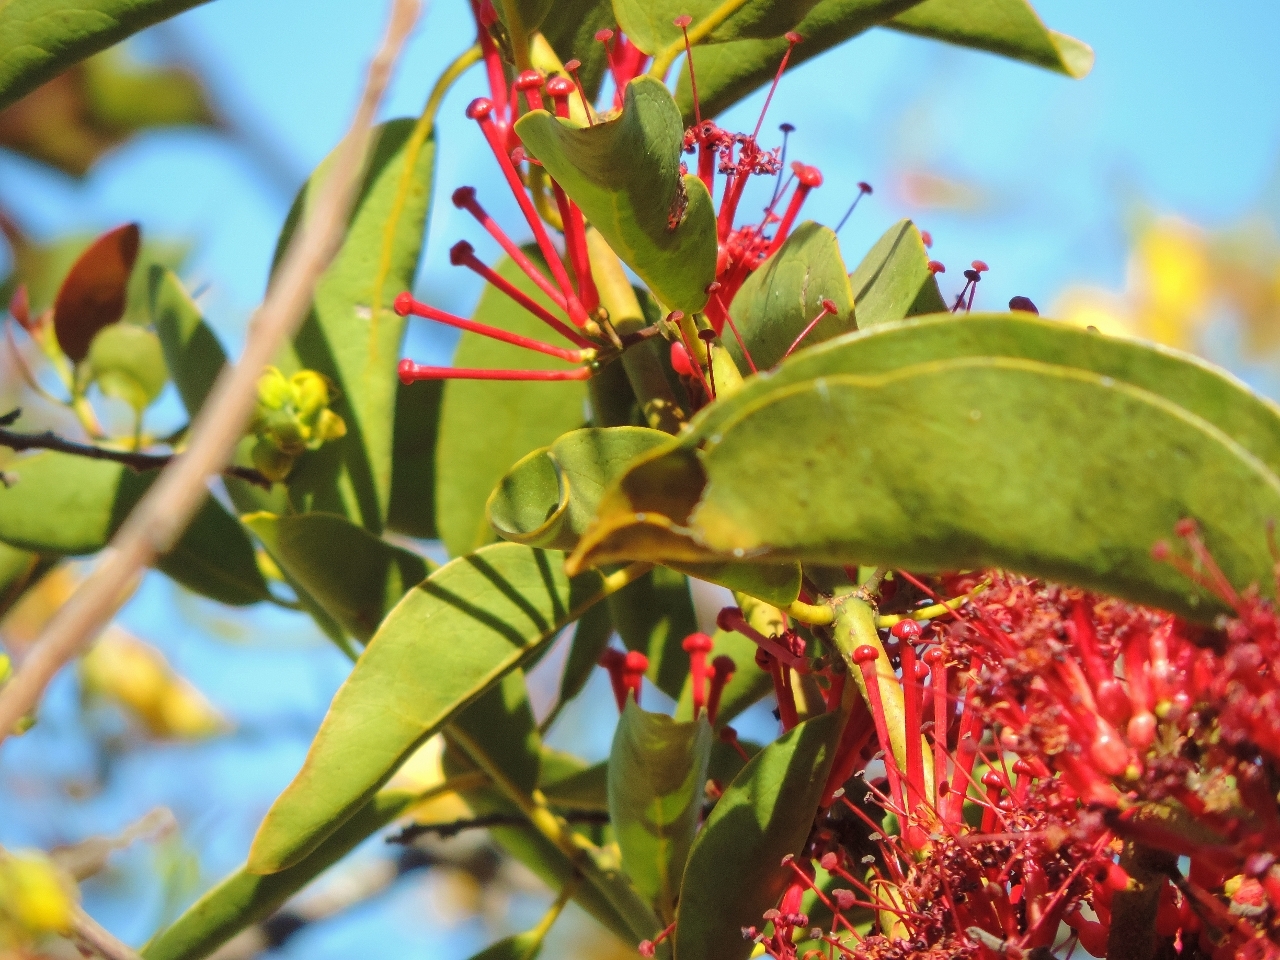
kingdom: Plantae
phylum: Tracheophyta
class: Magnoliopsida
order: Santalales
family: Loranthaceae
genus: Globimetula
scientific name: Globimetula mweroensis
